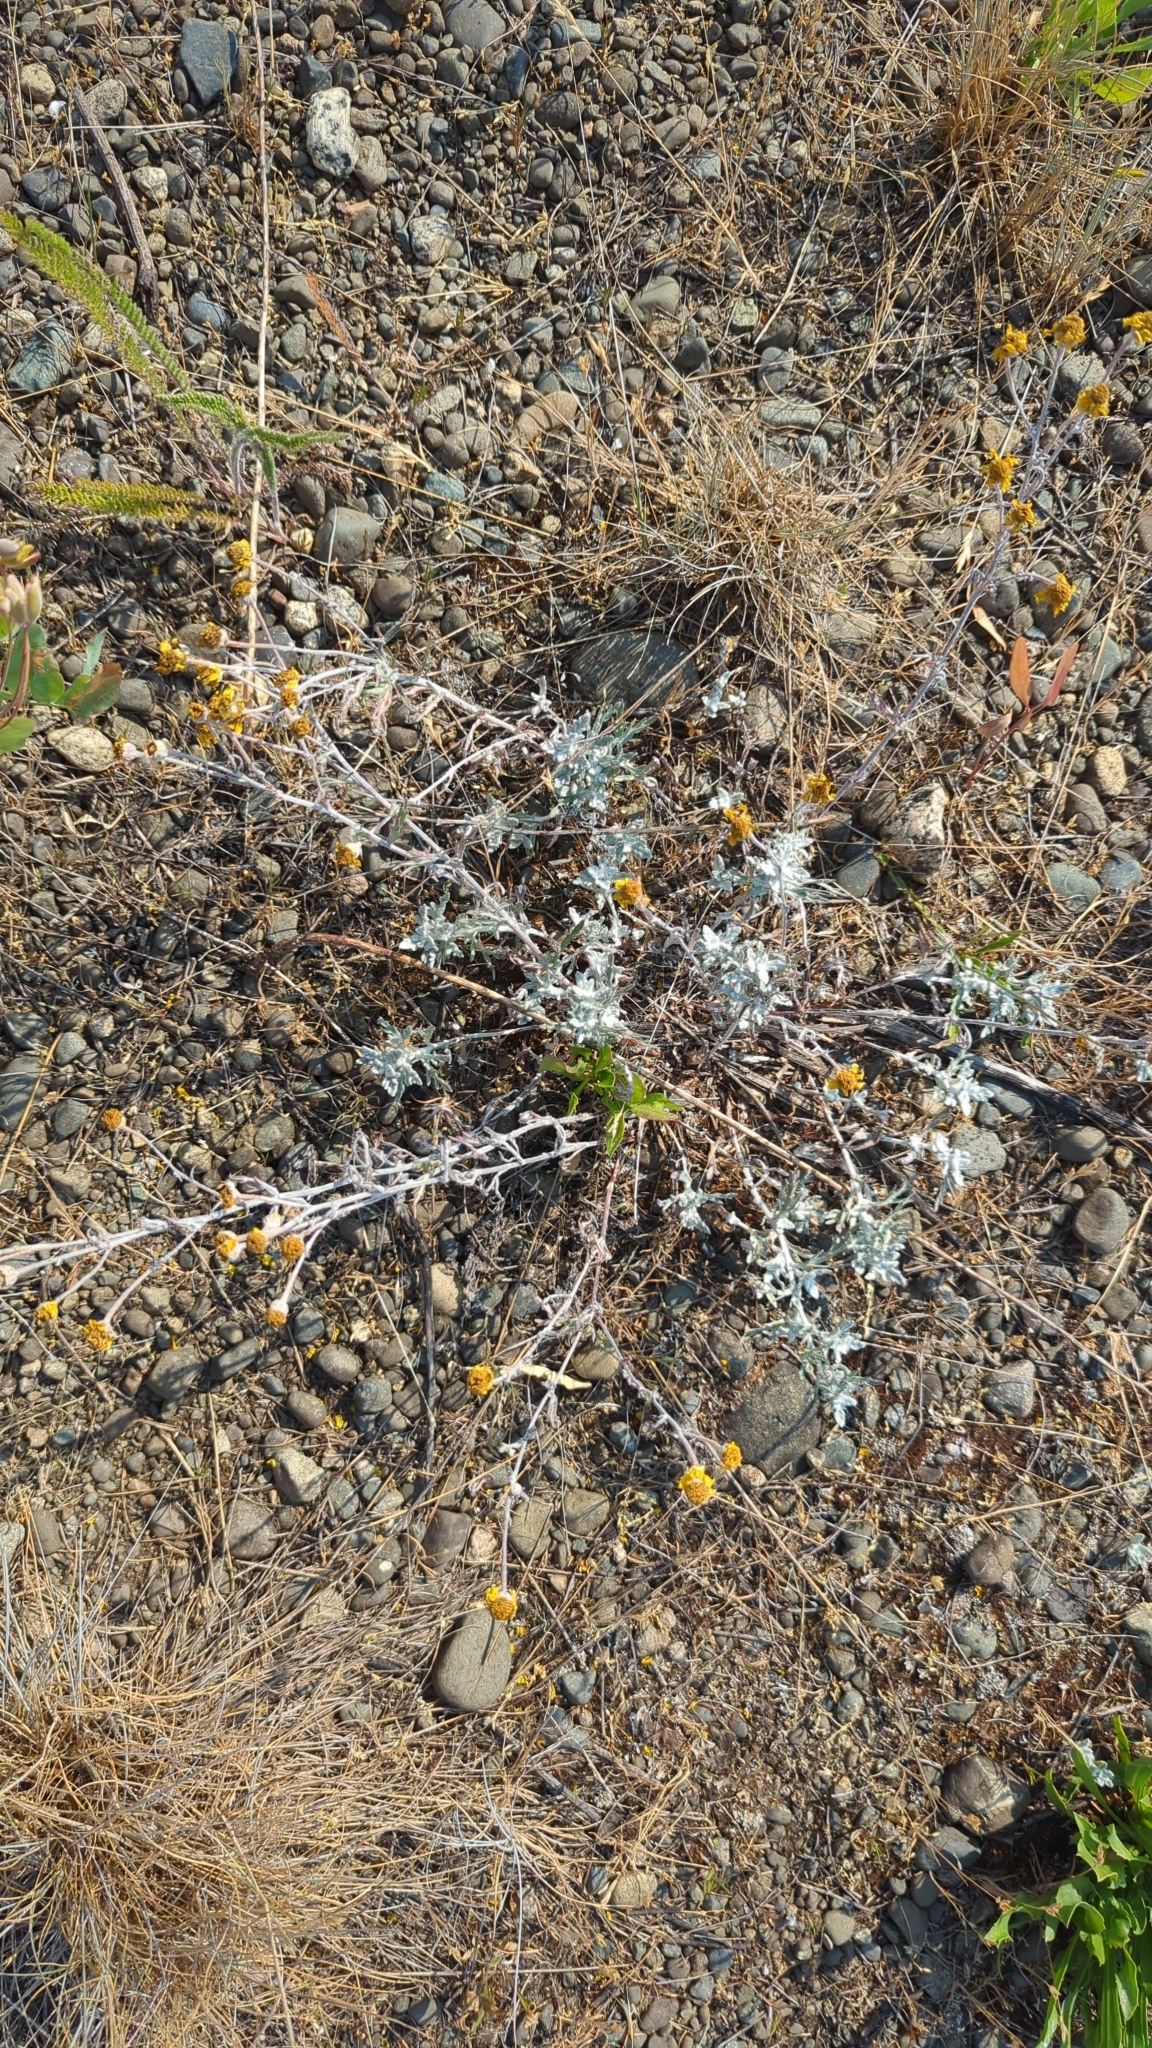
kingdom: Plantae
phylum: Tracheophyta
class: Magnoliopsida
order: Asterales
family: Asteraceae
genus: Eriophyllum
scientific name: Eriophyllum lanatum
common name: Common woolly-sunflower
